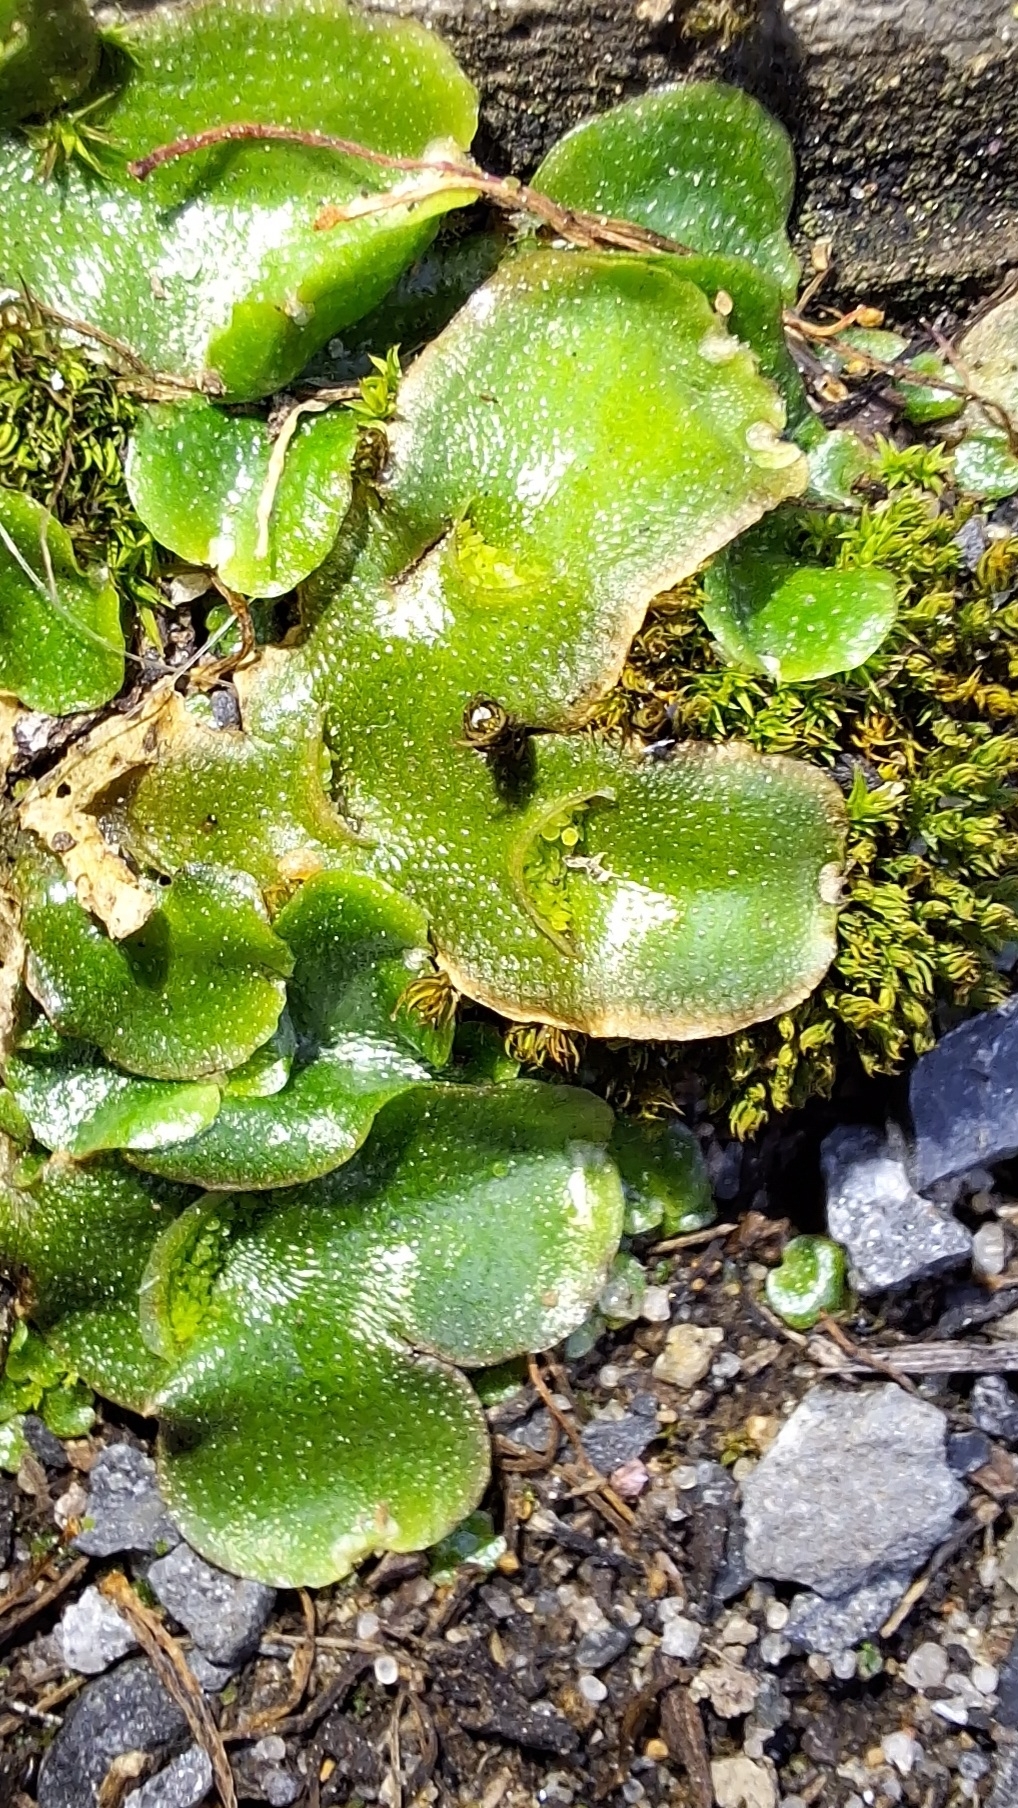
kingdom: Plantae
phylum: Marchantiophyta
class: Marchantiopsida
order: Lunulariales
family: Lunulariaceae
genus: Lunularia
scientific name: Lunularia cruciata
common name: Crescent-cup liverwort
